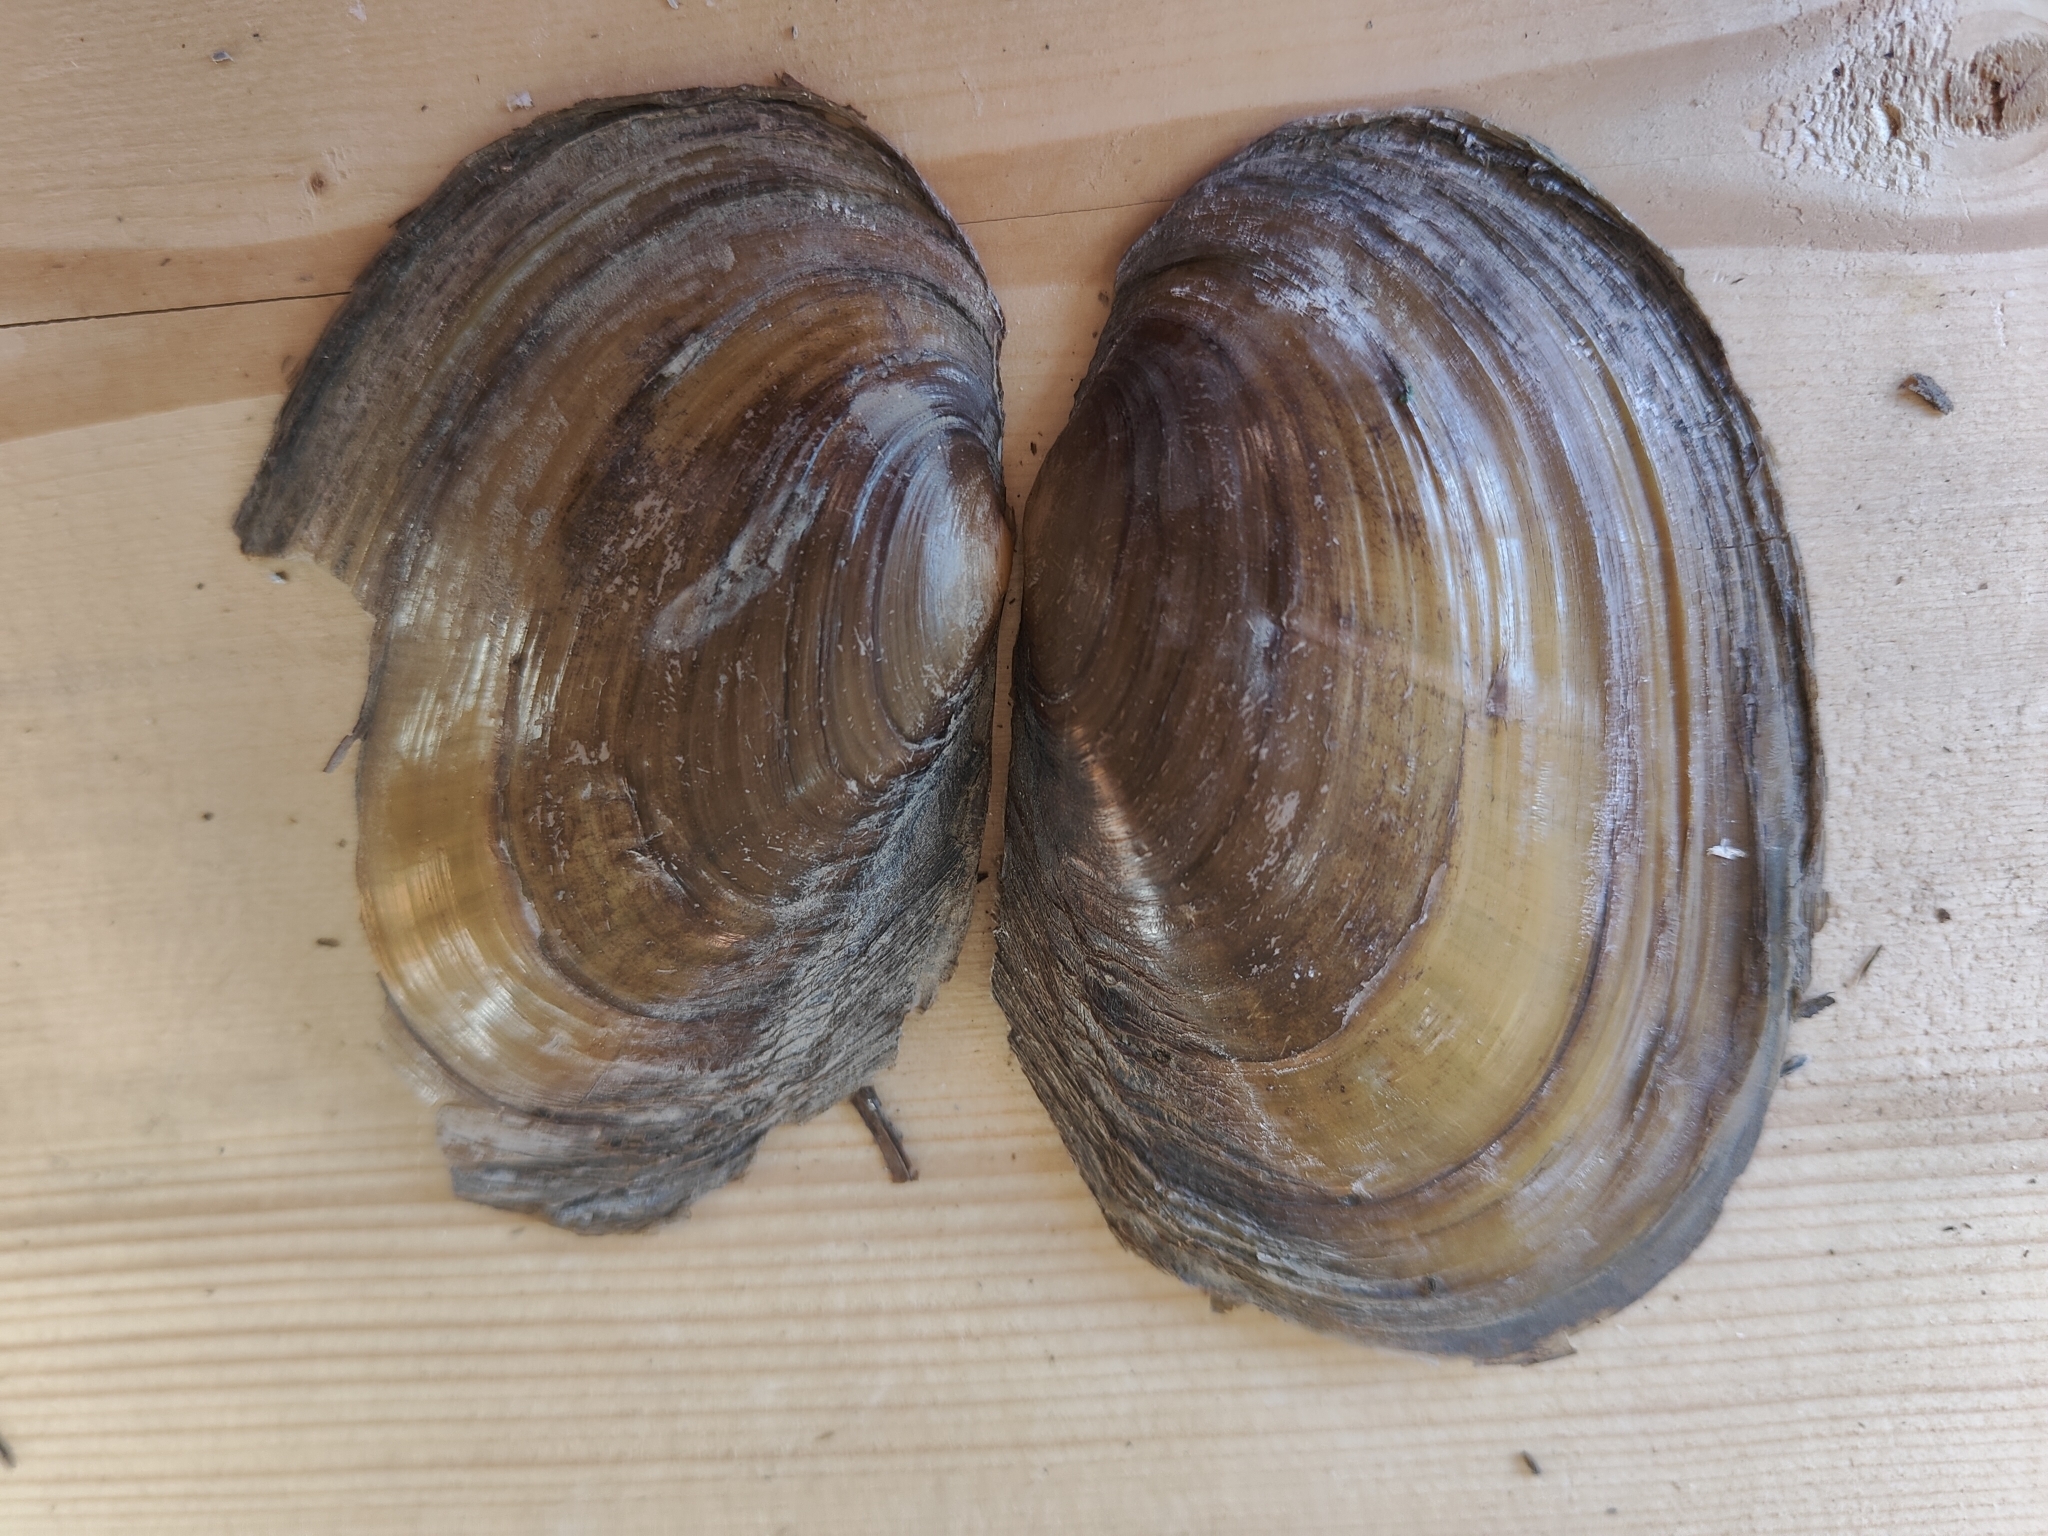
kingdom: Animalia
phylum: Mollusca
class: Bivalvia
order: Unionida
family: Unionidae
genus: Potamilus
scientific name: Potamilus fragilis
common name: Fragile papershell
